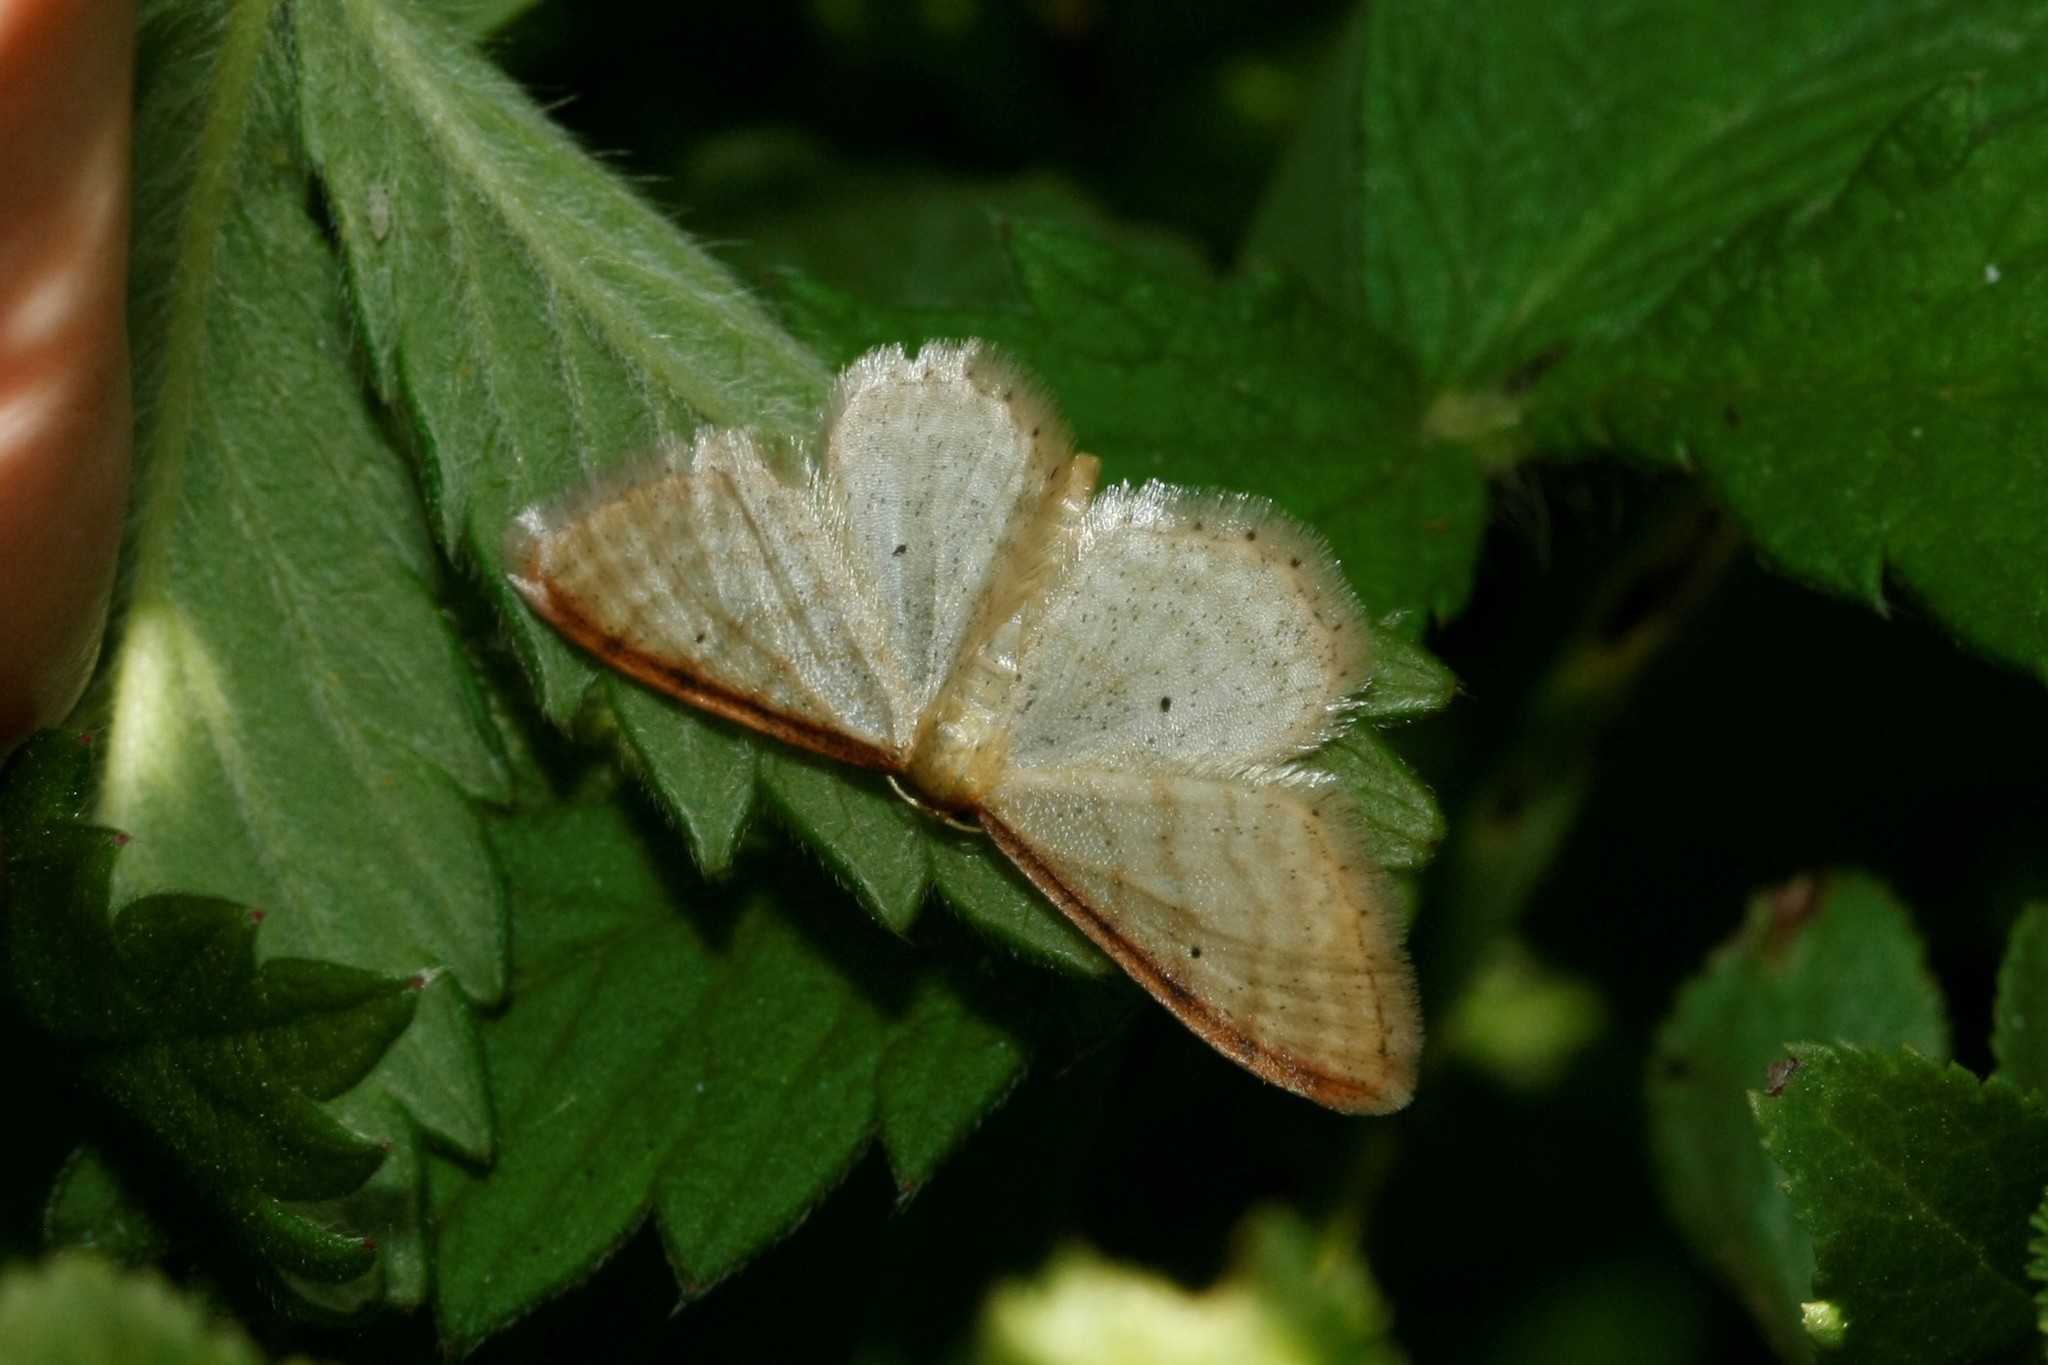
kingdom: Animalia
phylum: Arthropoda
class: Insecta
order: Lepidoptera
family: Geometridae
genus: Idaea
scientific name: Idaea humiliata
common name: Isle of wight wave
